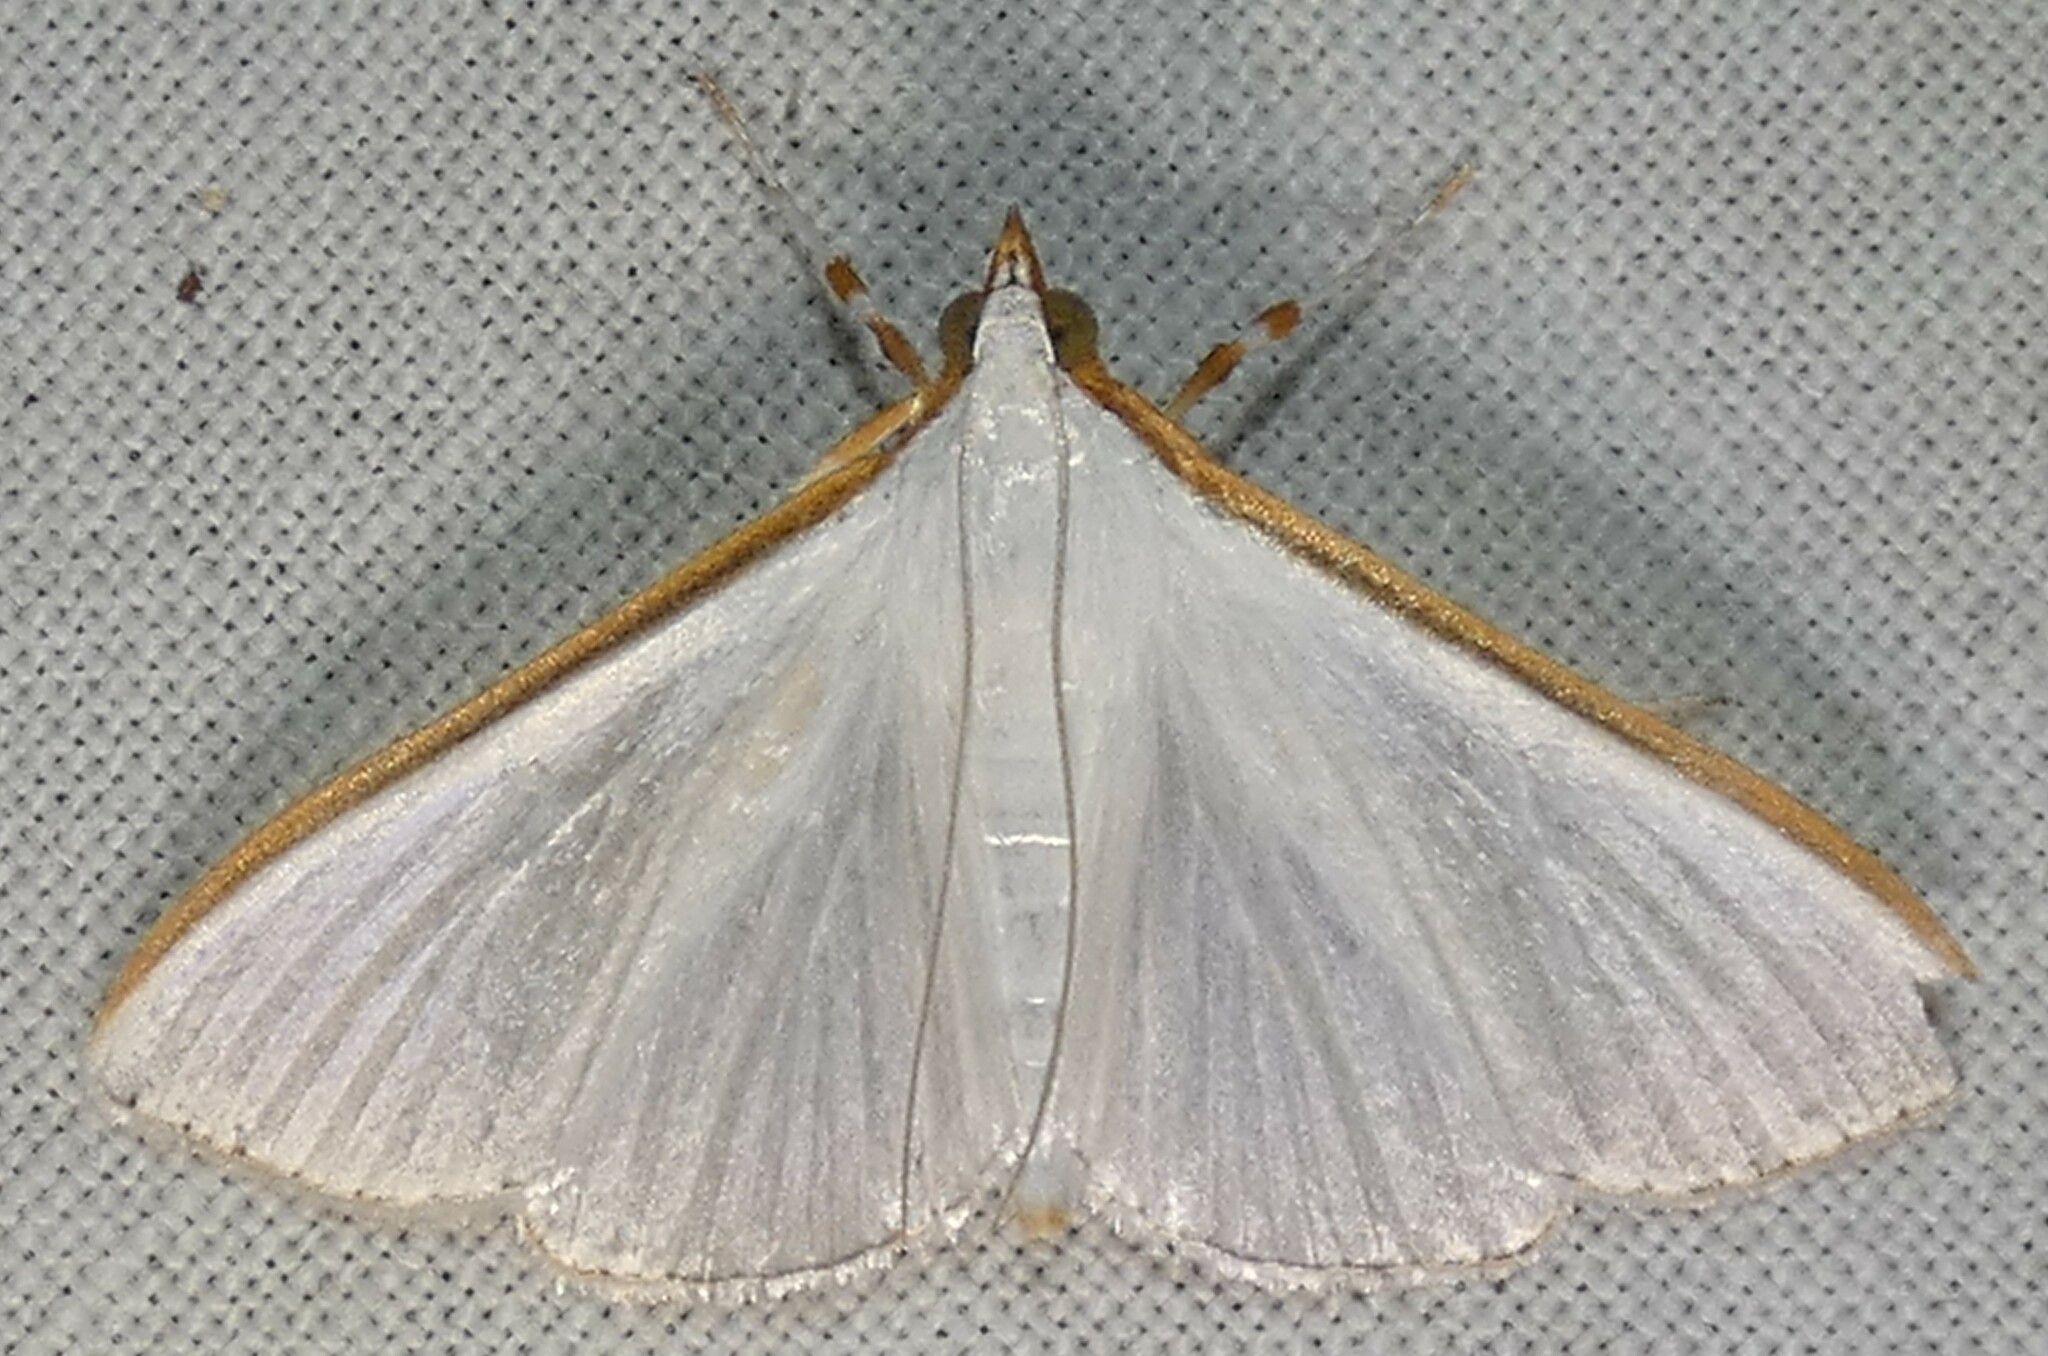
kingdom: Animalia
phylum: Arthropoda
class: Insecta
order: Lepidoptera
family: Crambidae
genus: Diaphania
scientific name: Diaphania costata
